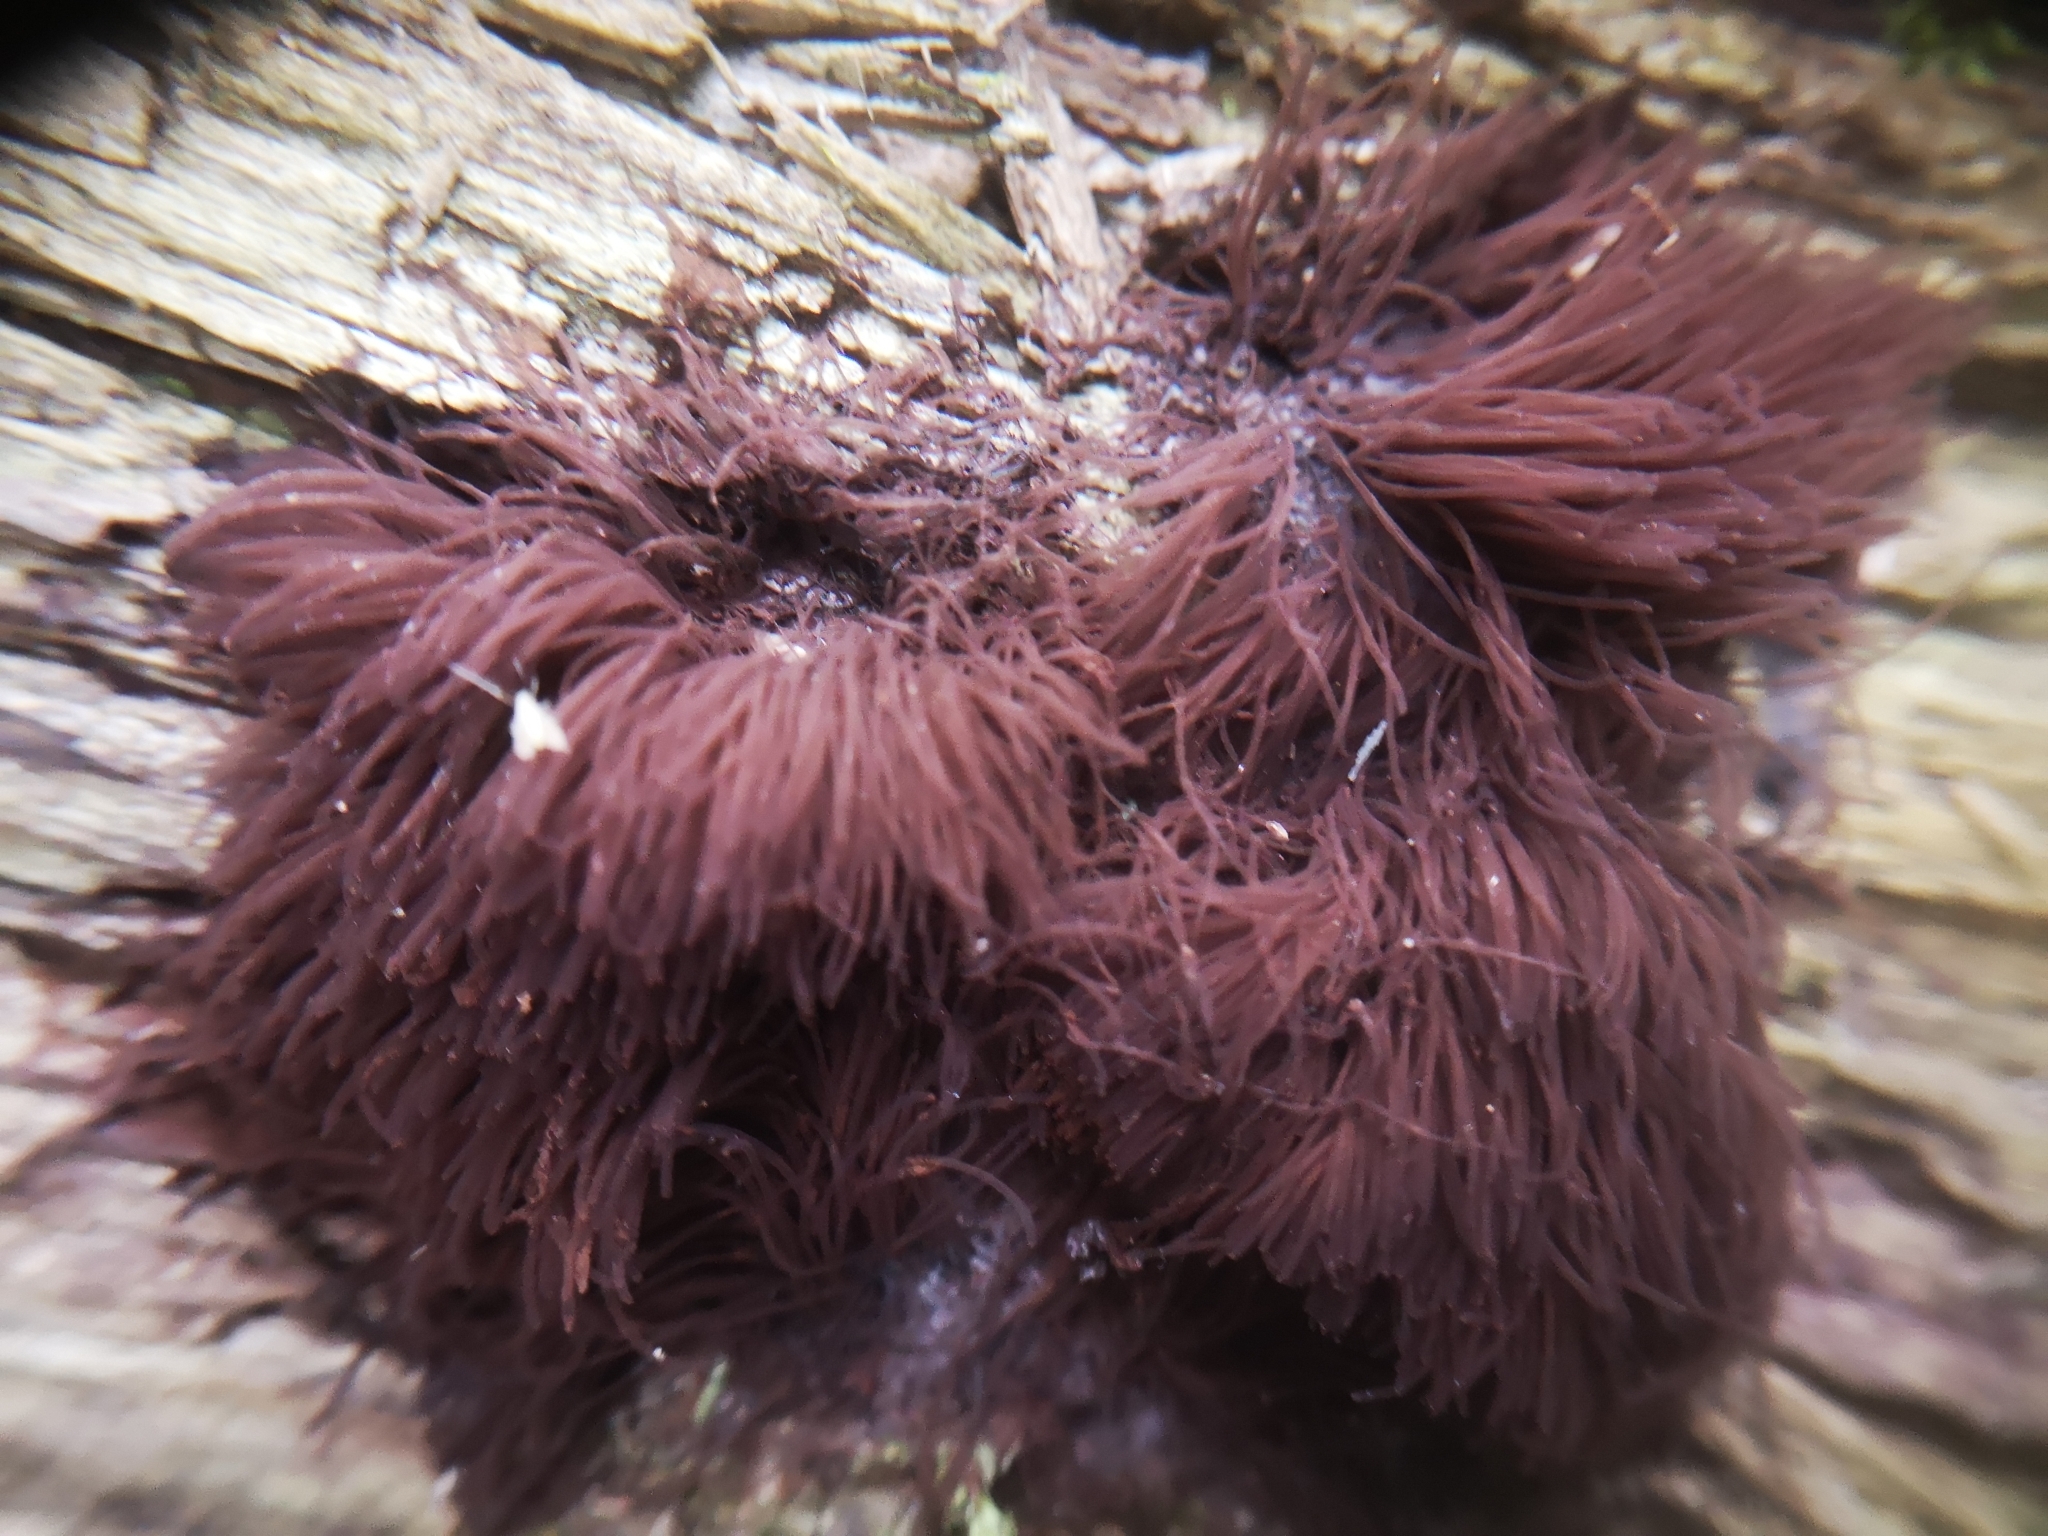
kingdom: Protozoa
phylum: Mycetozoa
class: Myxomycetes
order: Stemonitidales
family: Stemonitidaceae
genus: Stemonitis
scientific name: Stemonitis splendens
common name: Chocolate tube slime
